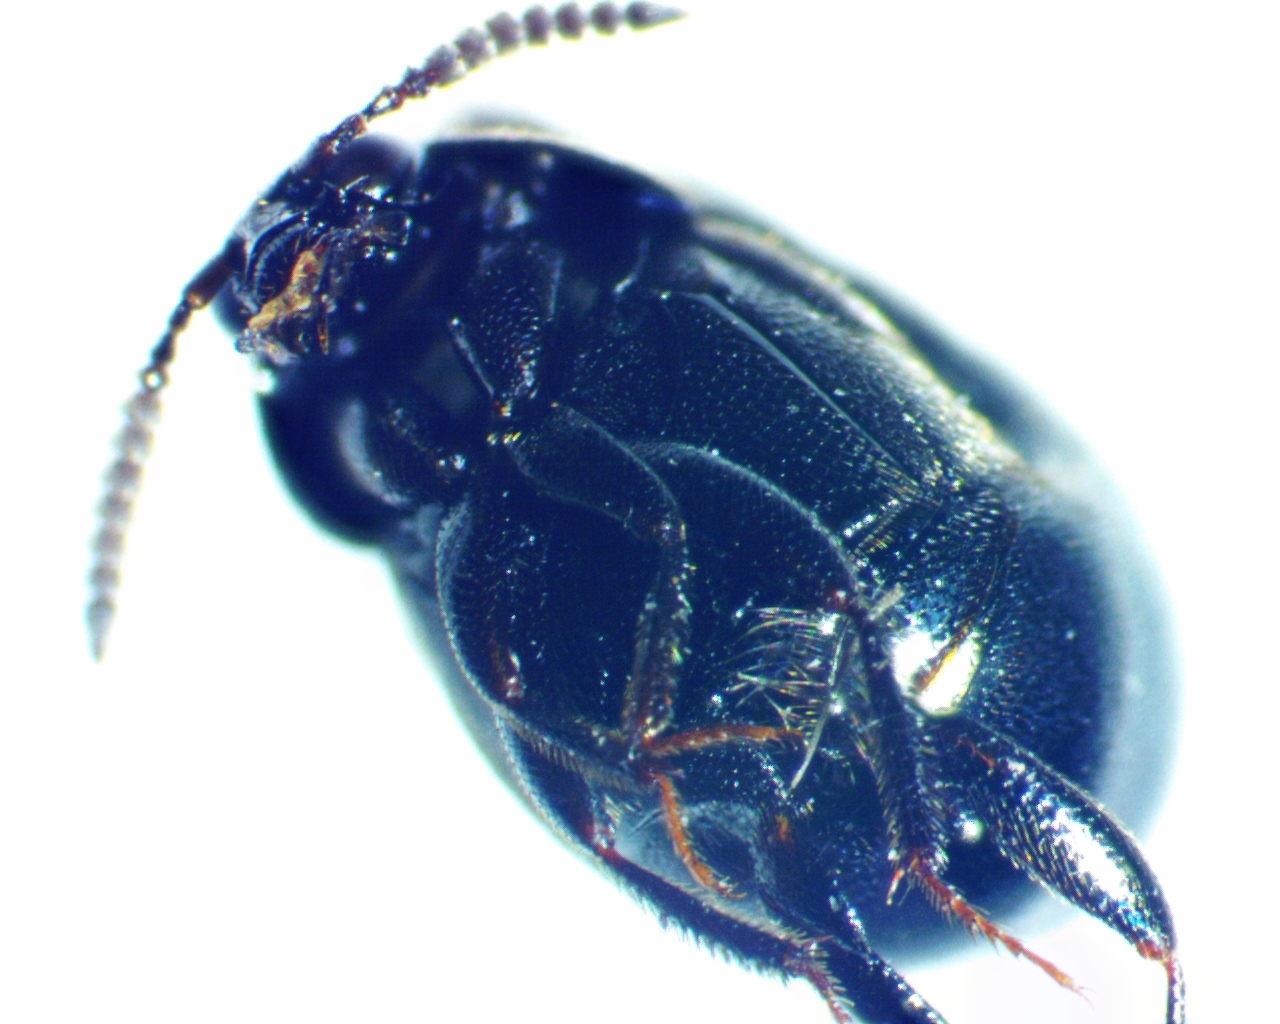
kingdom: Animalia
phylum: Arthropoda
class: Insecta
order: Coleoptera
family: Staphylinidae
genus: Aleochara
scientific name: Aleochara lata
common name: Rove beetle
